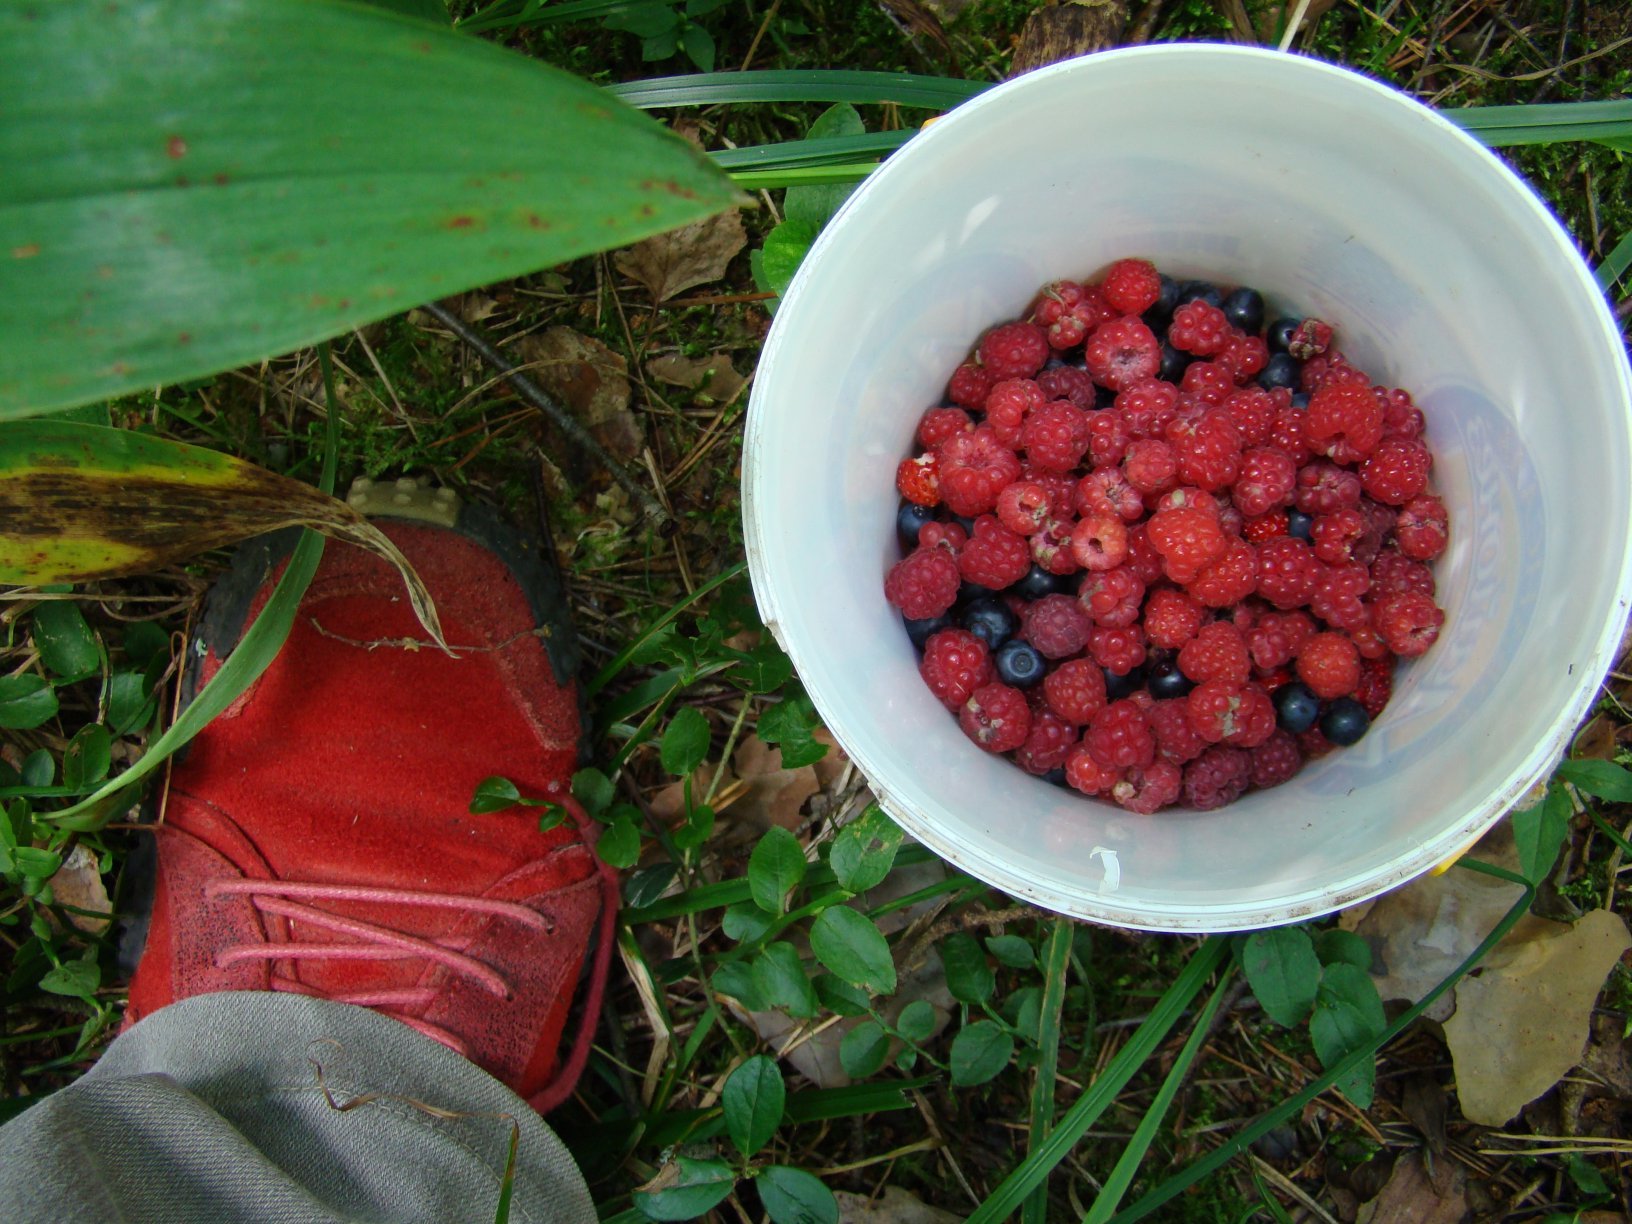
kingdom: Plantae
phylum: Tracheophyta
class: Magnoliopsida
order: Rosales
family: Rosaceae
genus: Rubus
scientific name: Rubus idaeus
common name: Raspberry
